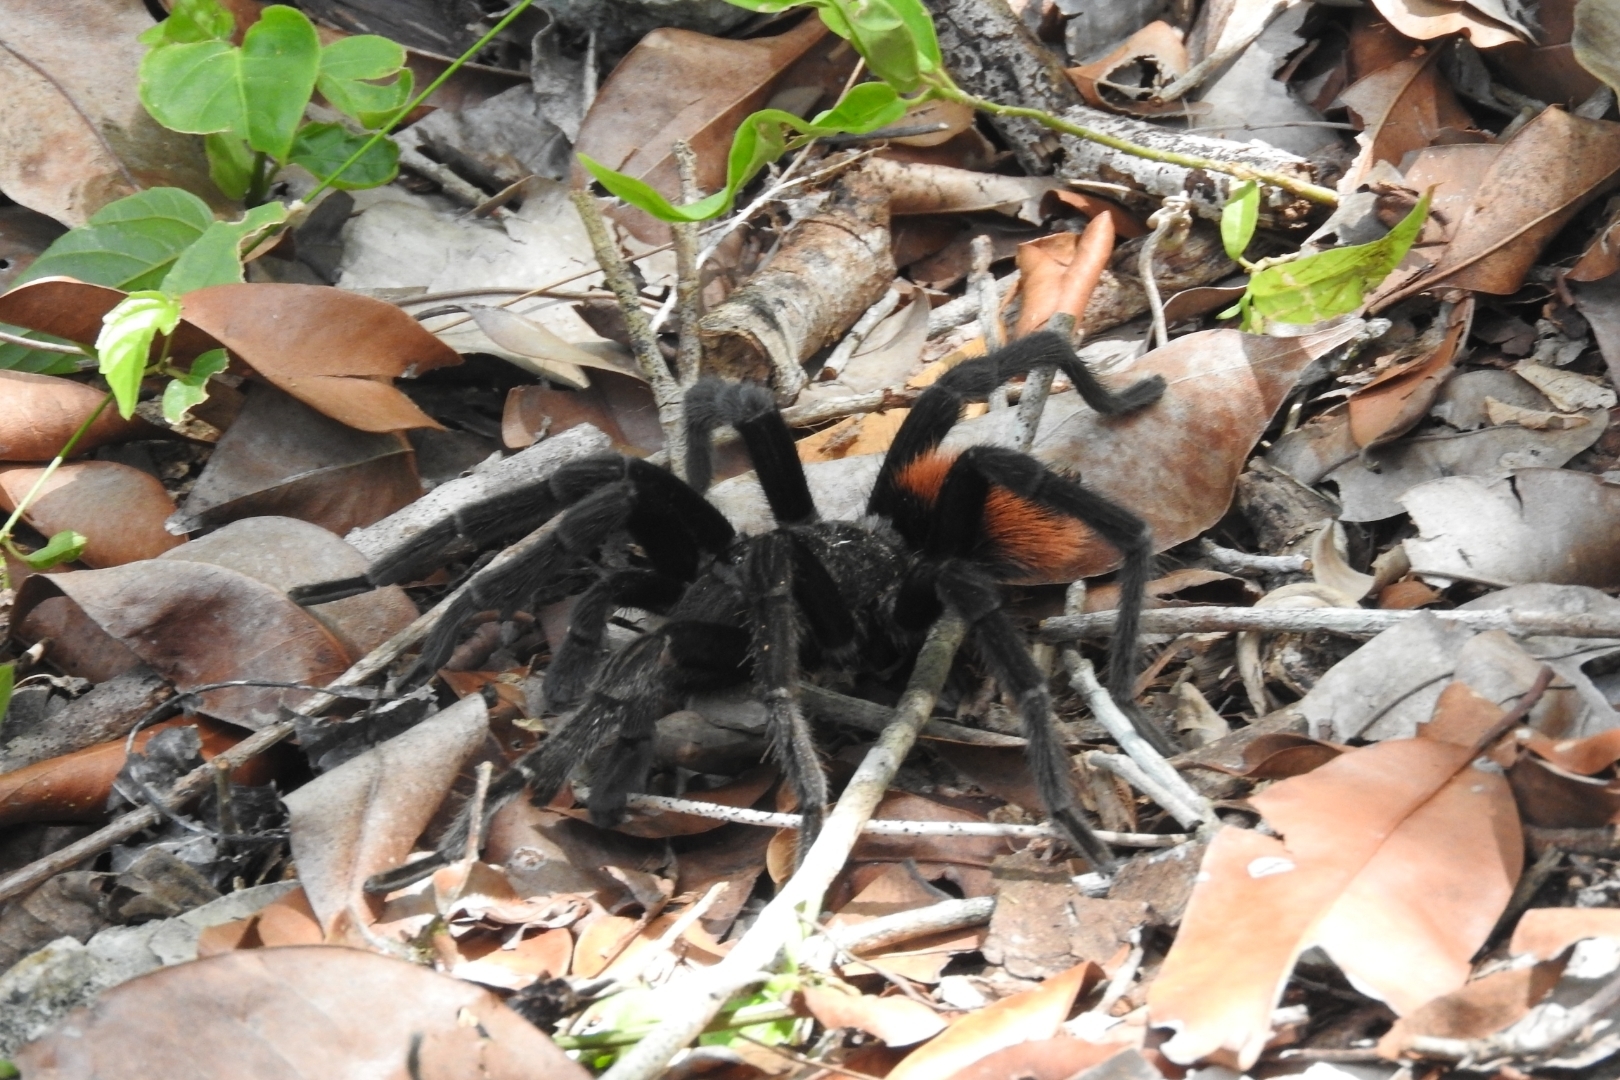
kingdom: Animalia
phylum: Arthropoda
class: Arachnida
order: Araneae
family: Theraphosidae
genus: Tliltocatl
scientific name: Tliltocatl epicureanus
